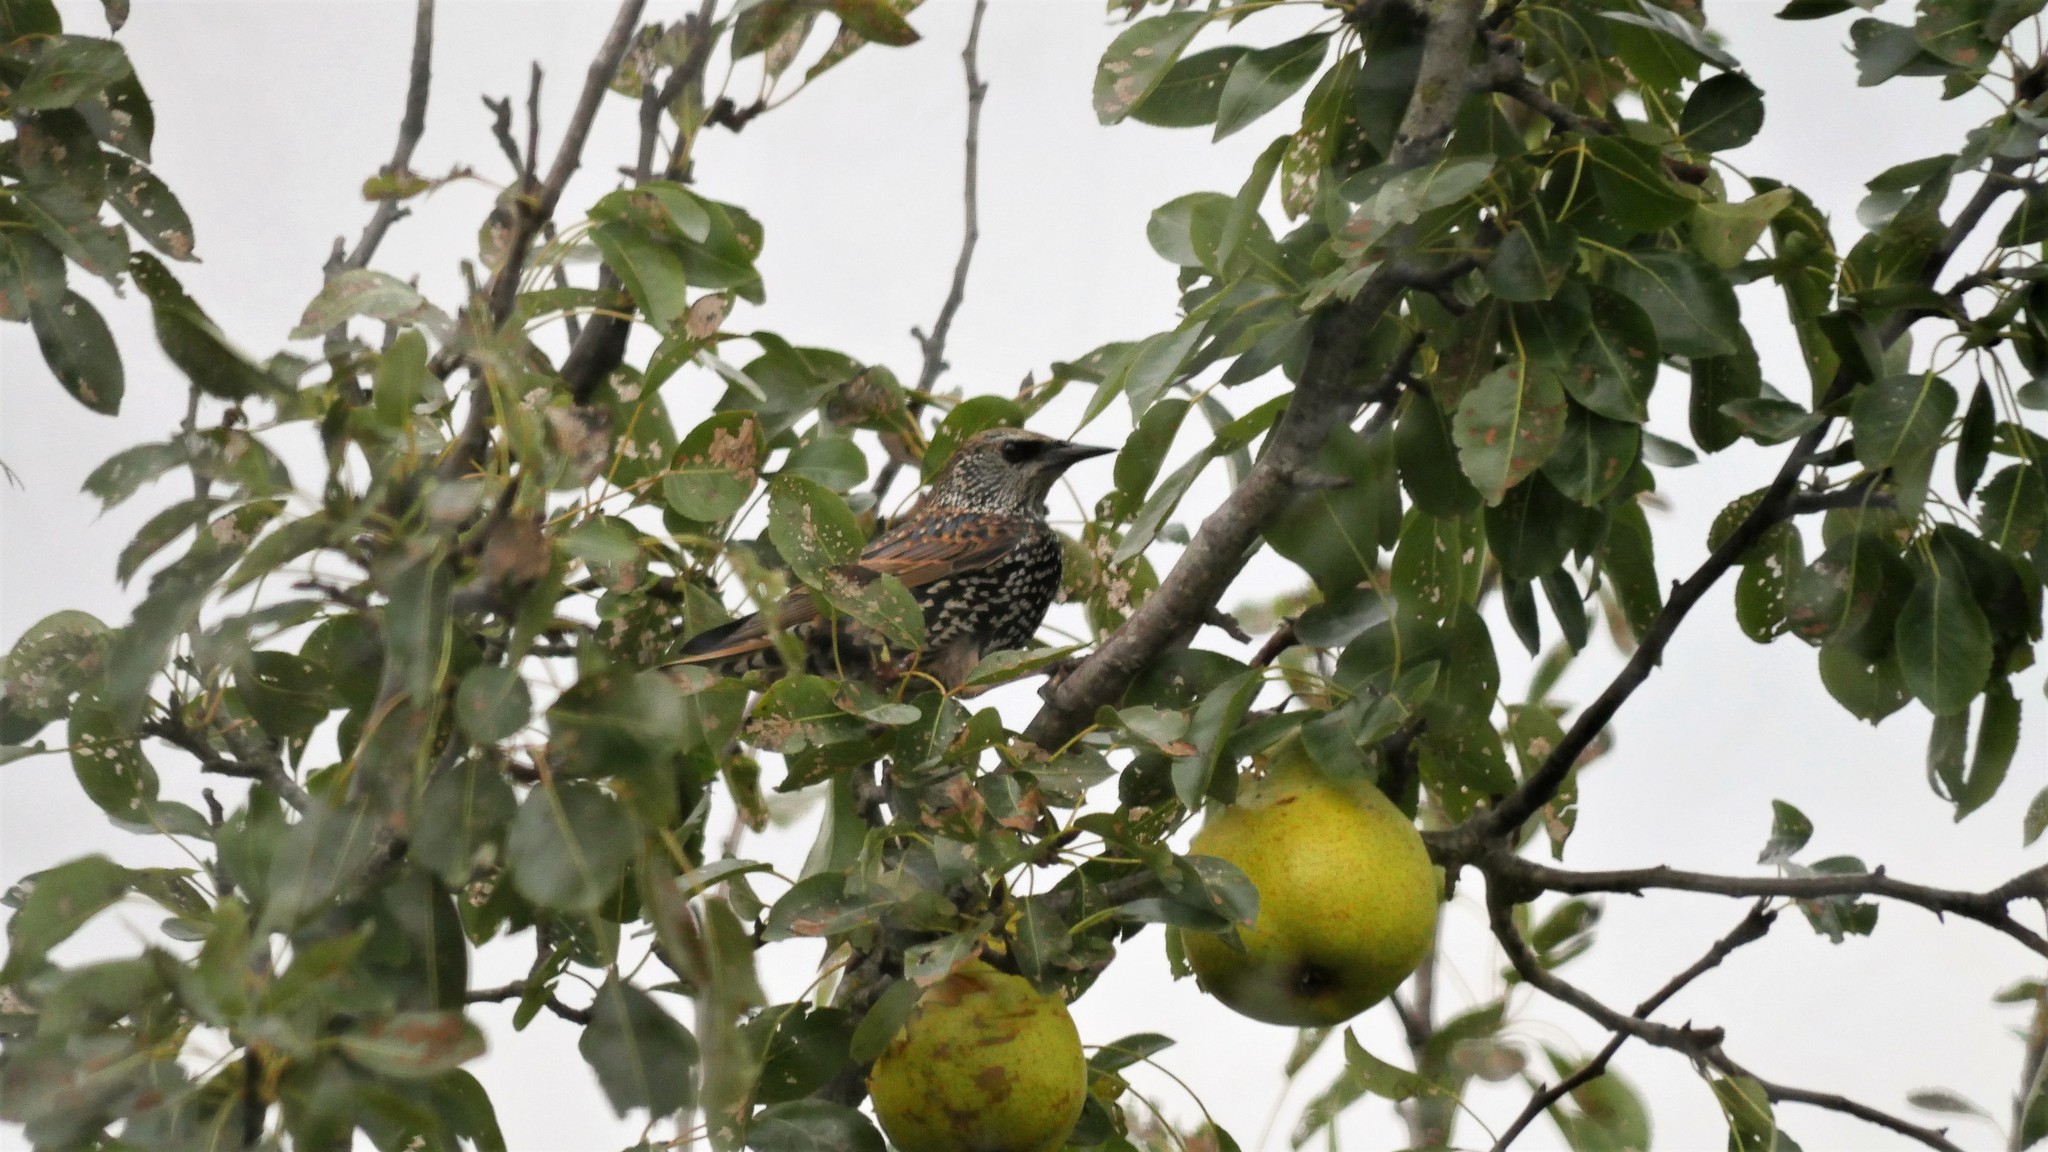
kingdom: Animalia
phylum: Chordata
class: Aves
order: Passeriformes
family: Sturnidae
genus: Sturnus
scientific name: Sturnus vulgaris
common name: Common starling
